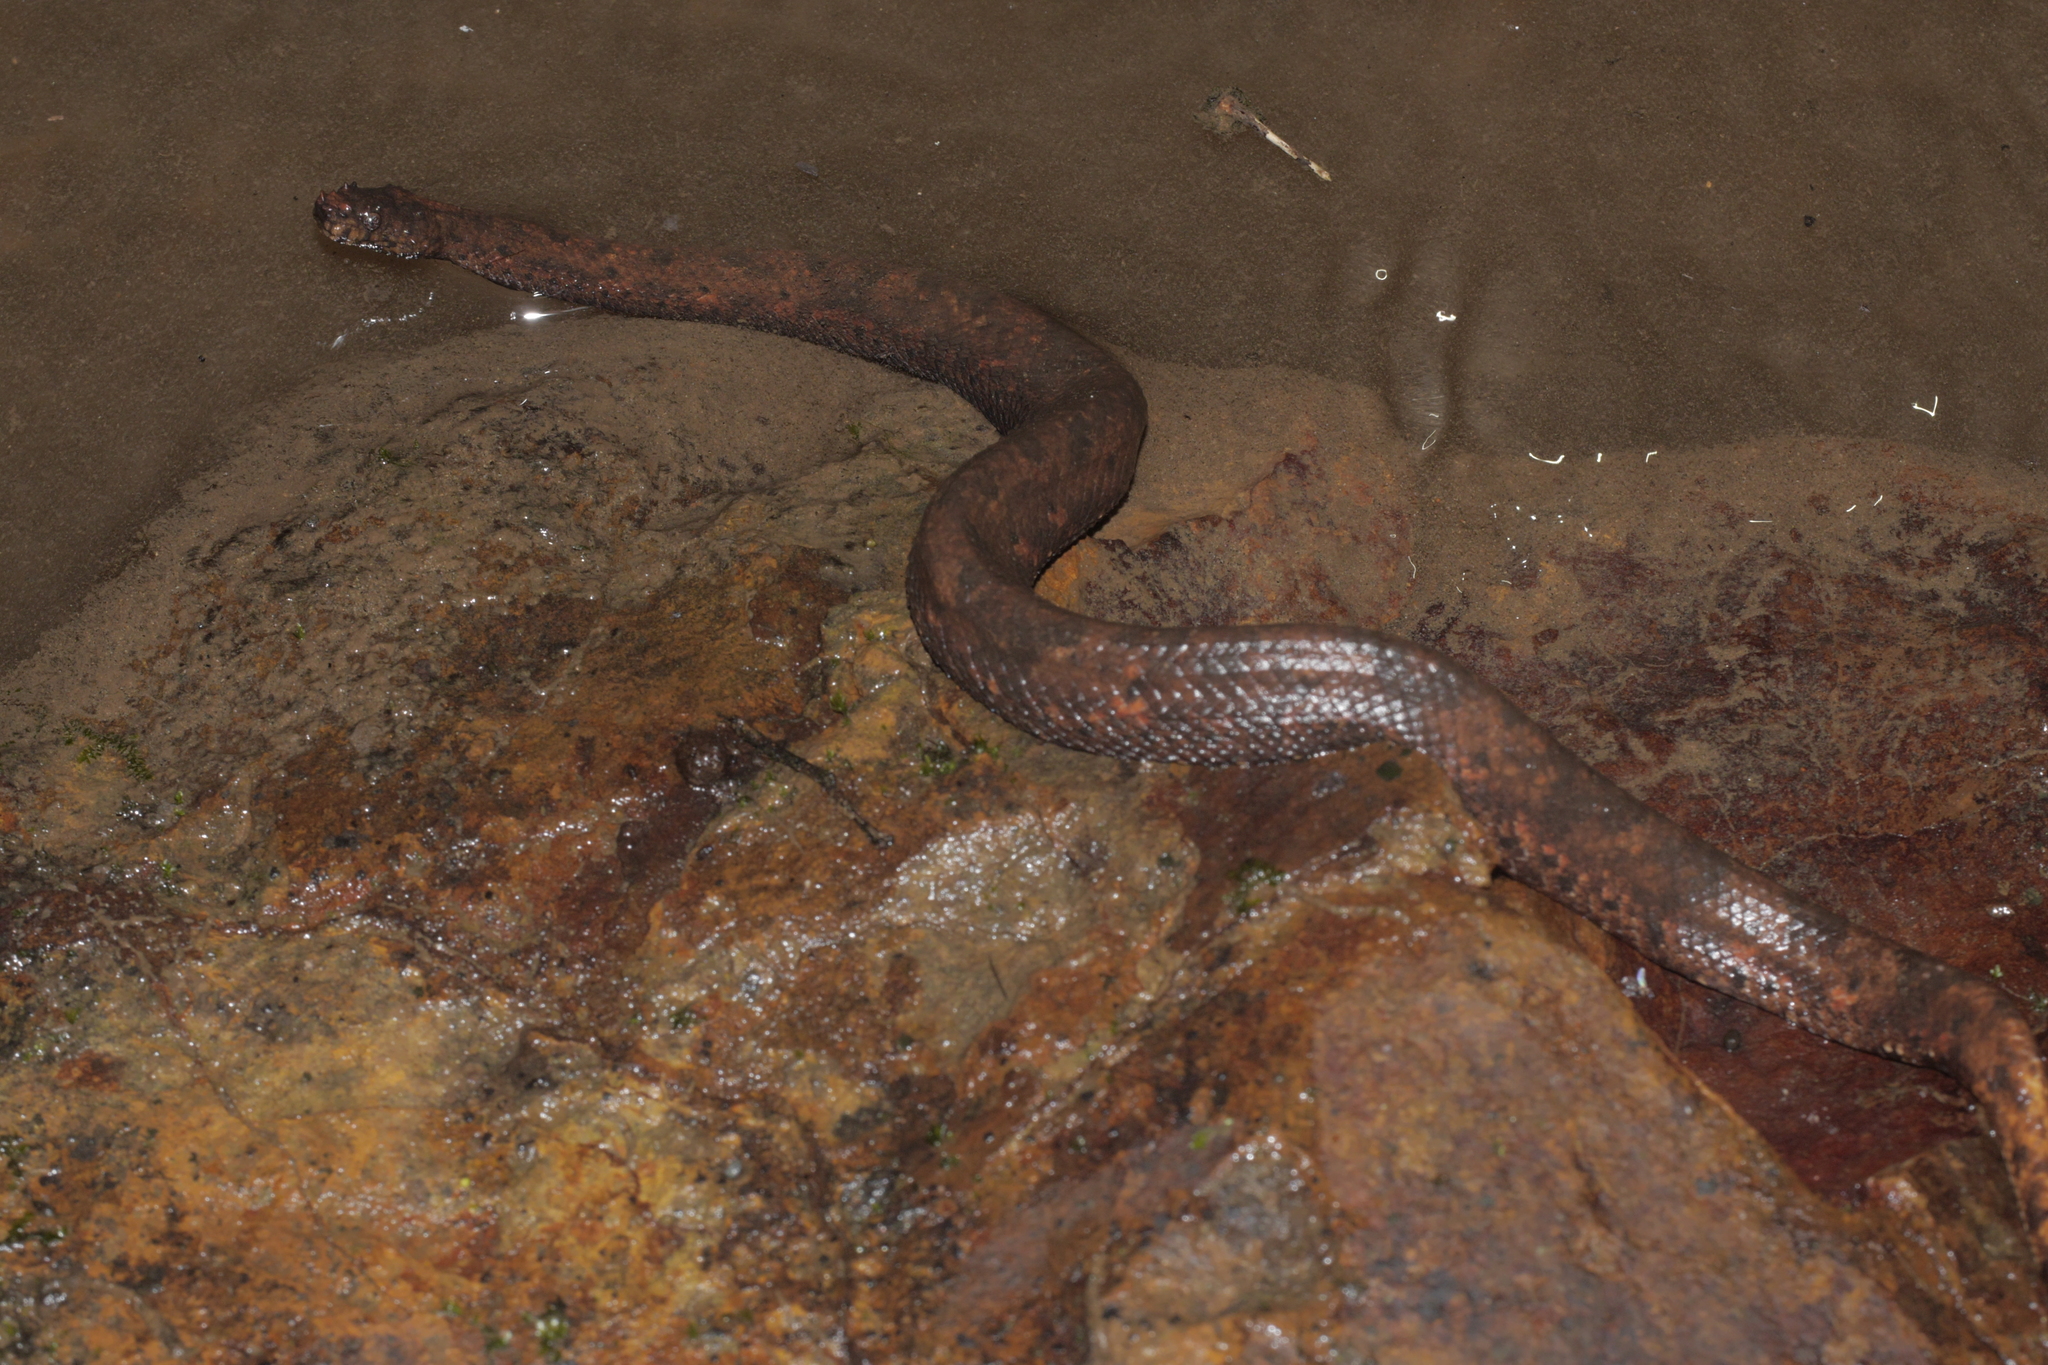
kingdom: Animalia
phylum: Chordata
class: Squamata
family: Tropidophiidae
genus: Trachyboa
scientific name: Trachyboa boulengeri
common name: Northern eyelash boa
